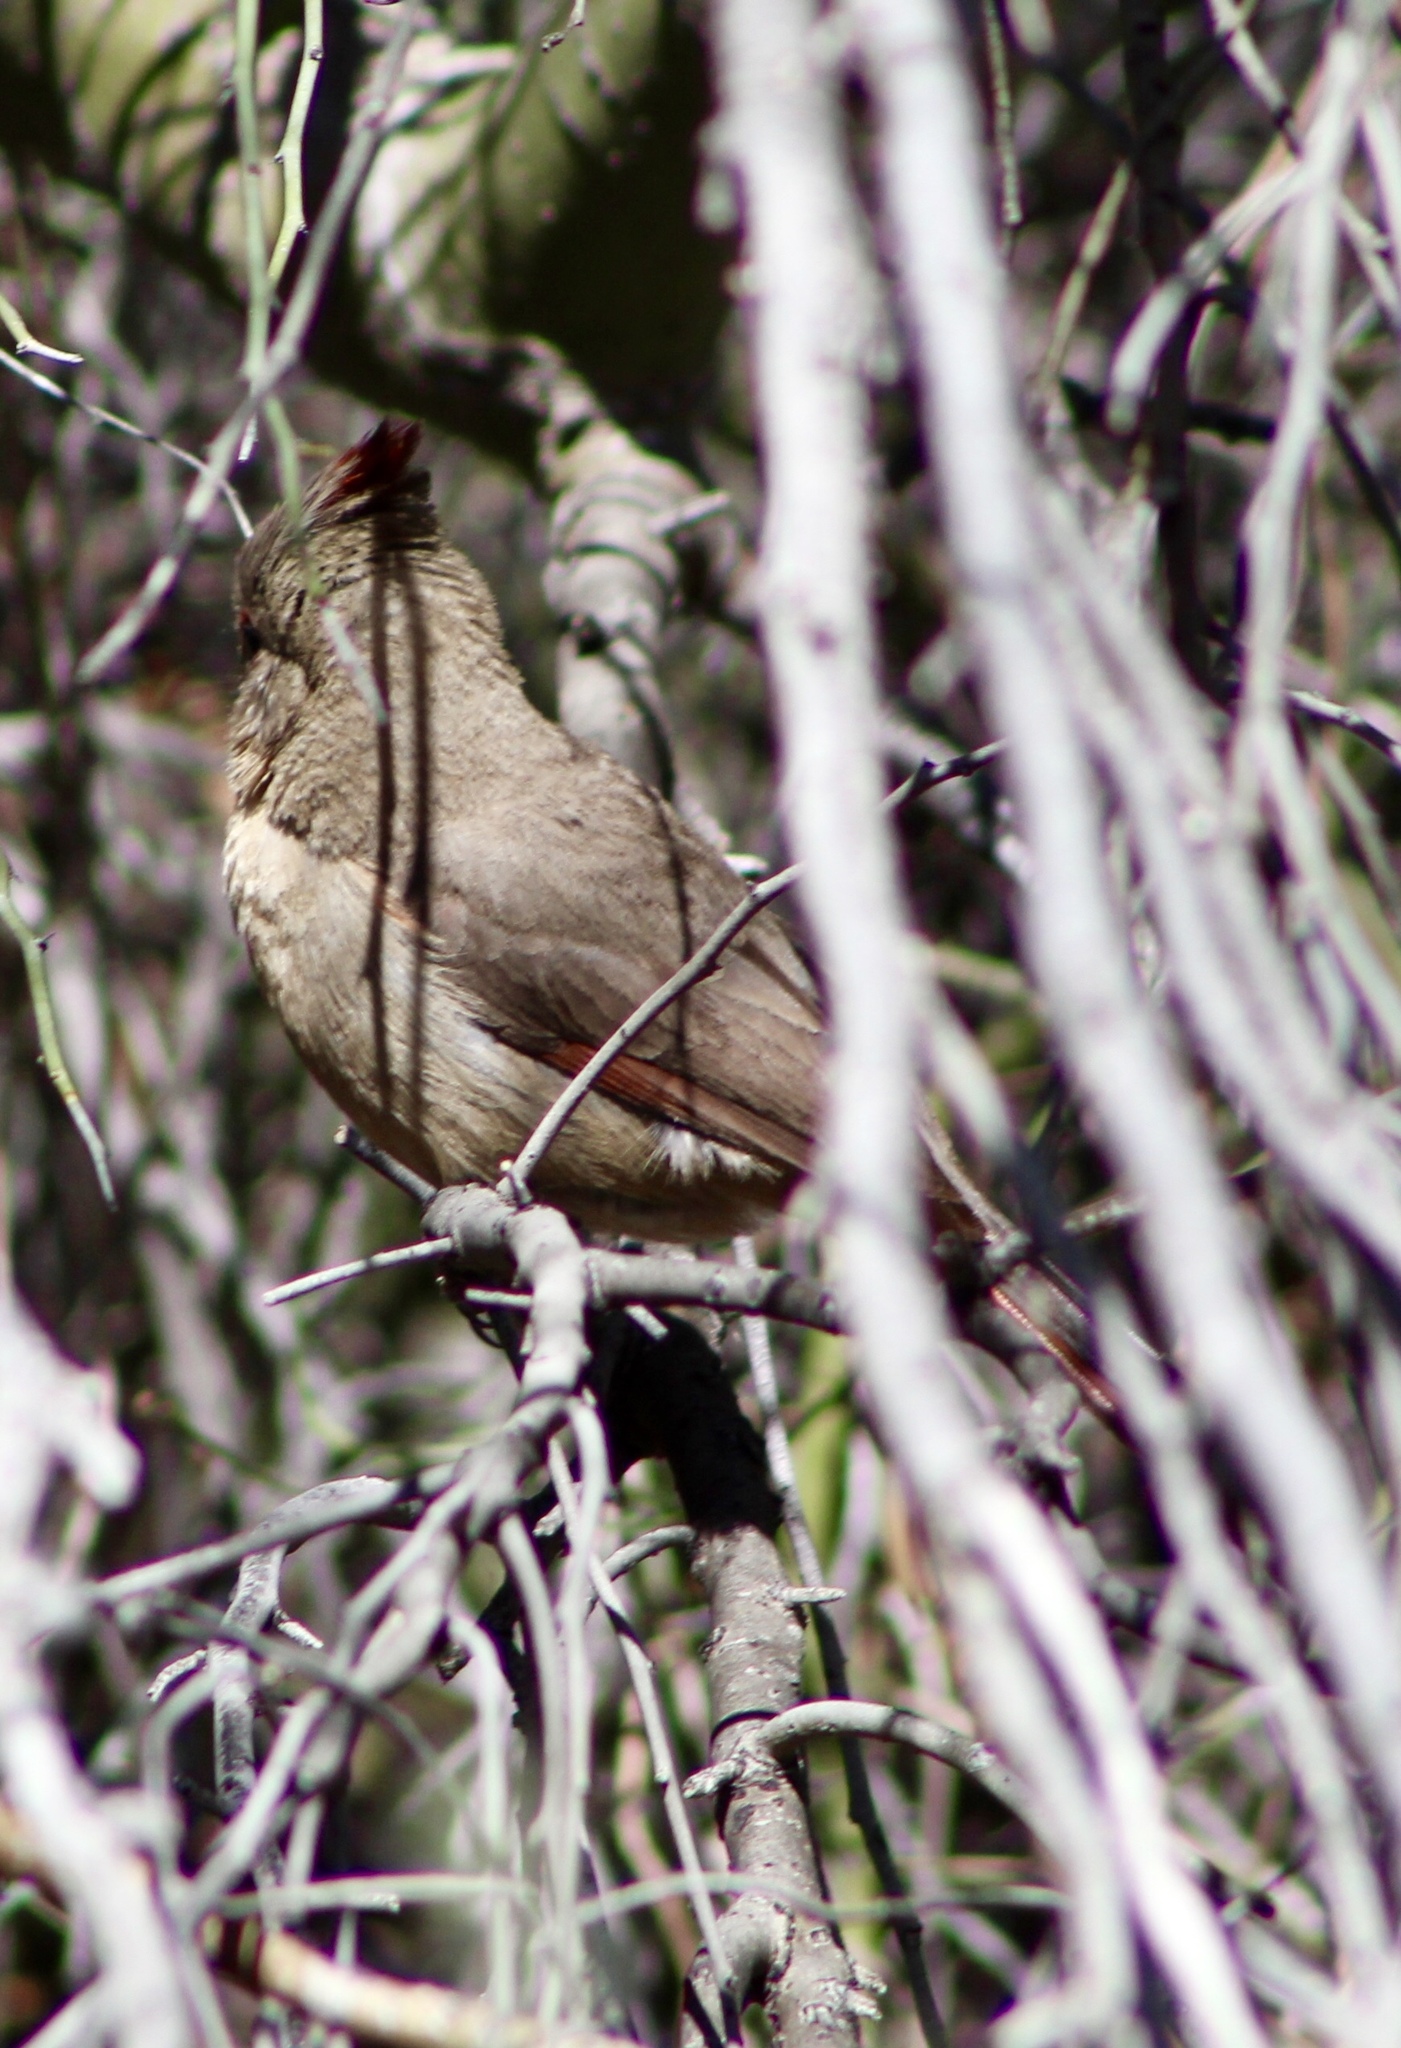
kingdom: Animalia
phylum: Chordata
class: Aves
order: Passeriformes
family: Cardinalidae
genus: Cardinalis
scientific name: Cardinalis sinuatus
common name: Pyrrhuloxia
